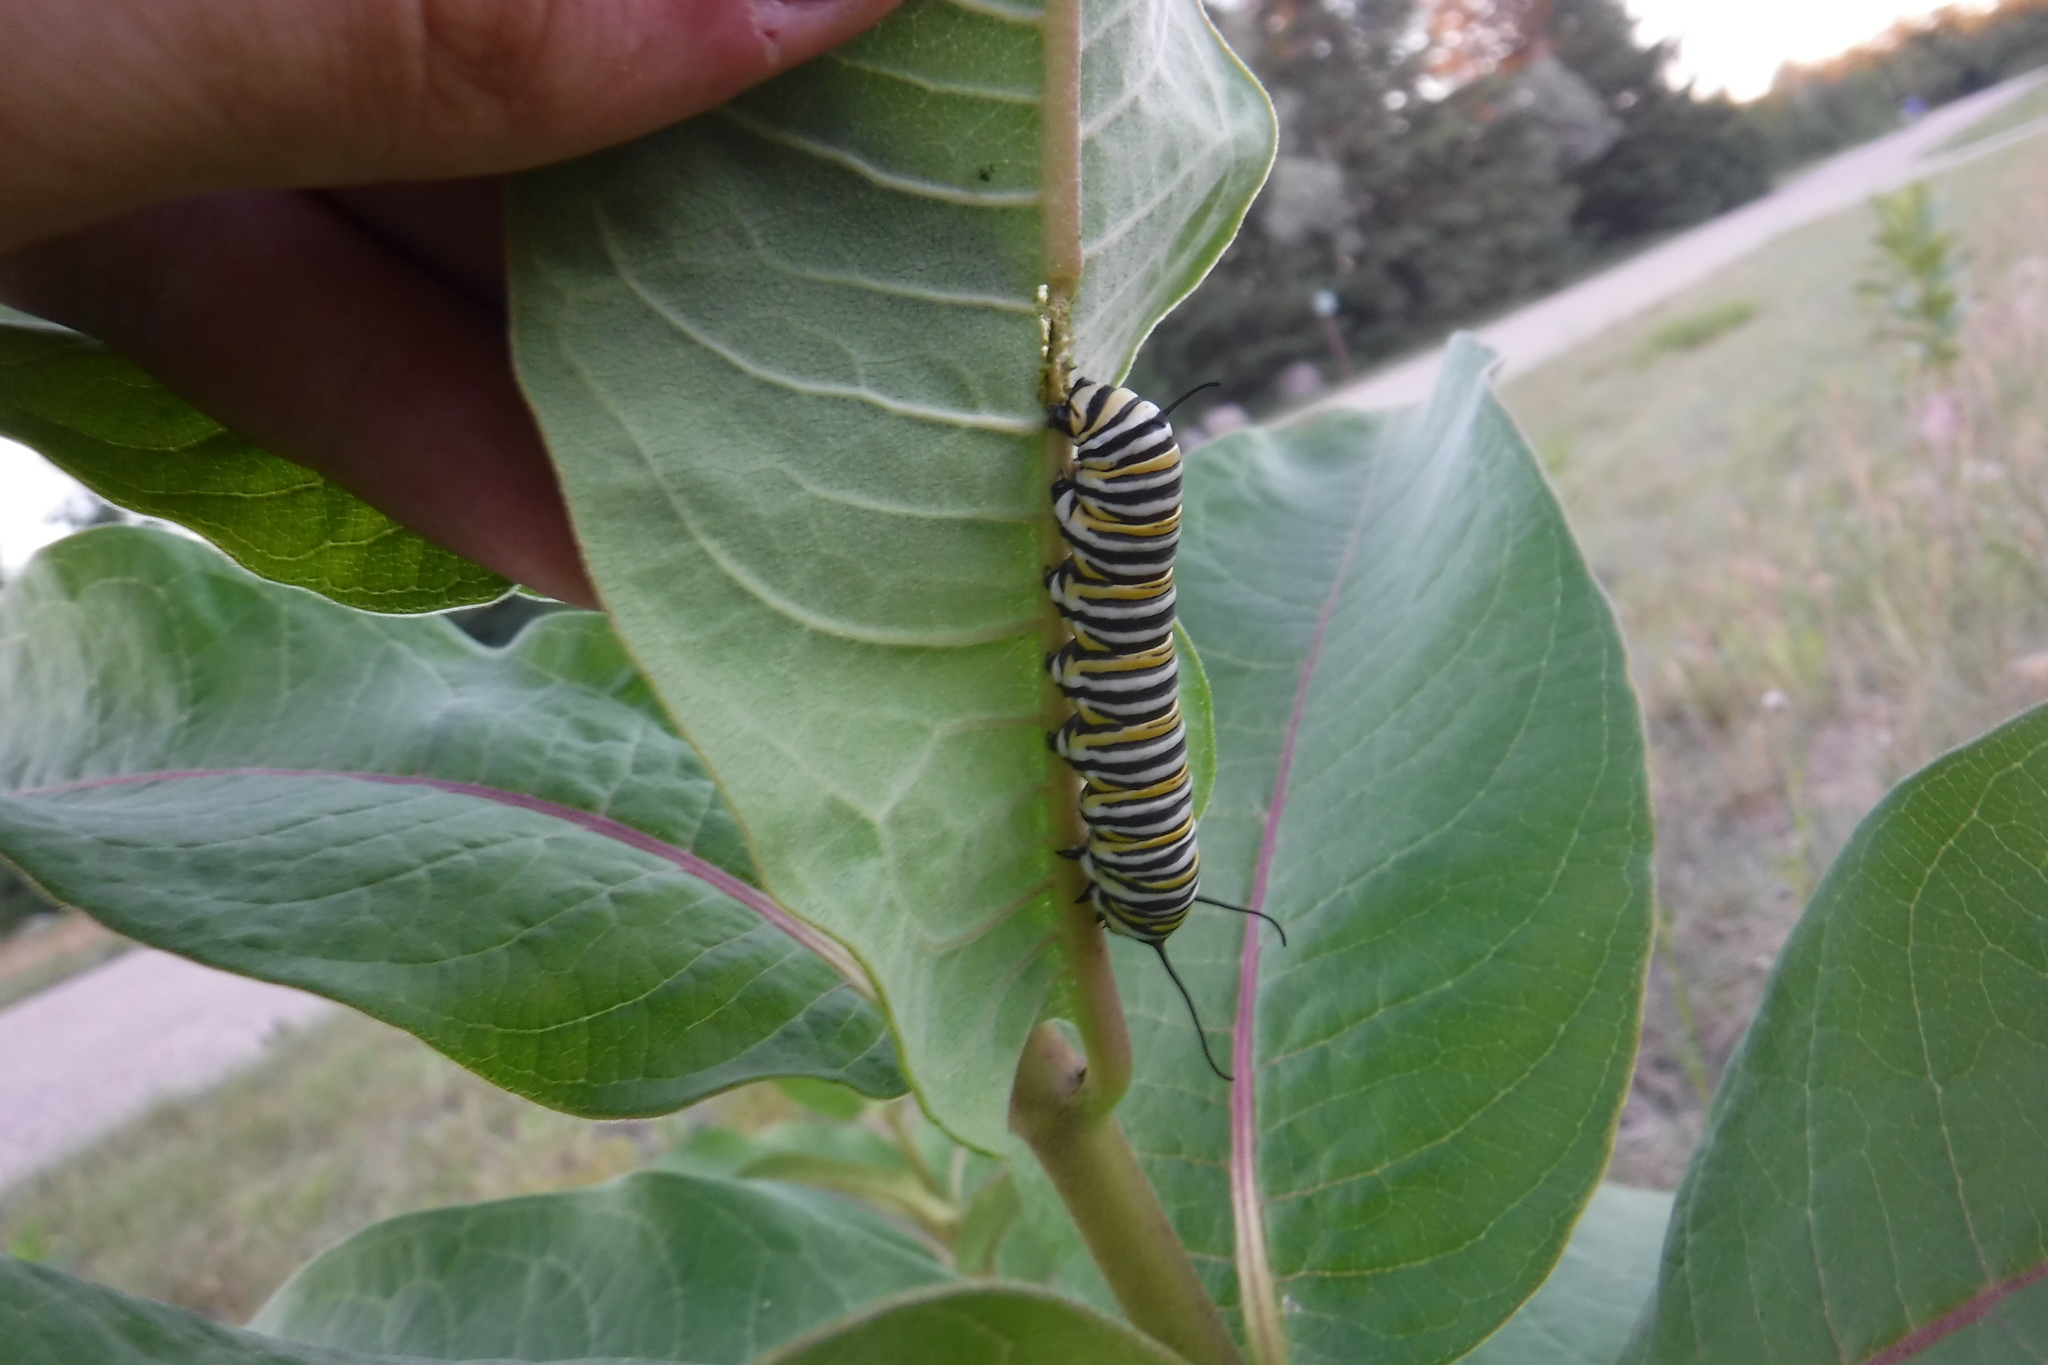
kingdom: Animalia
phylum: Arthropoda
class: Insecta
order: Lepidoptera
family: Nymphalidae
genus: Danaus
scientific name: Danaus plexippus
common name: Monarch
